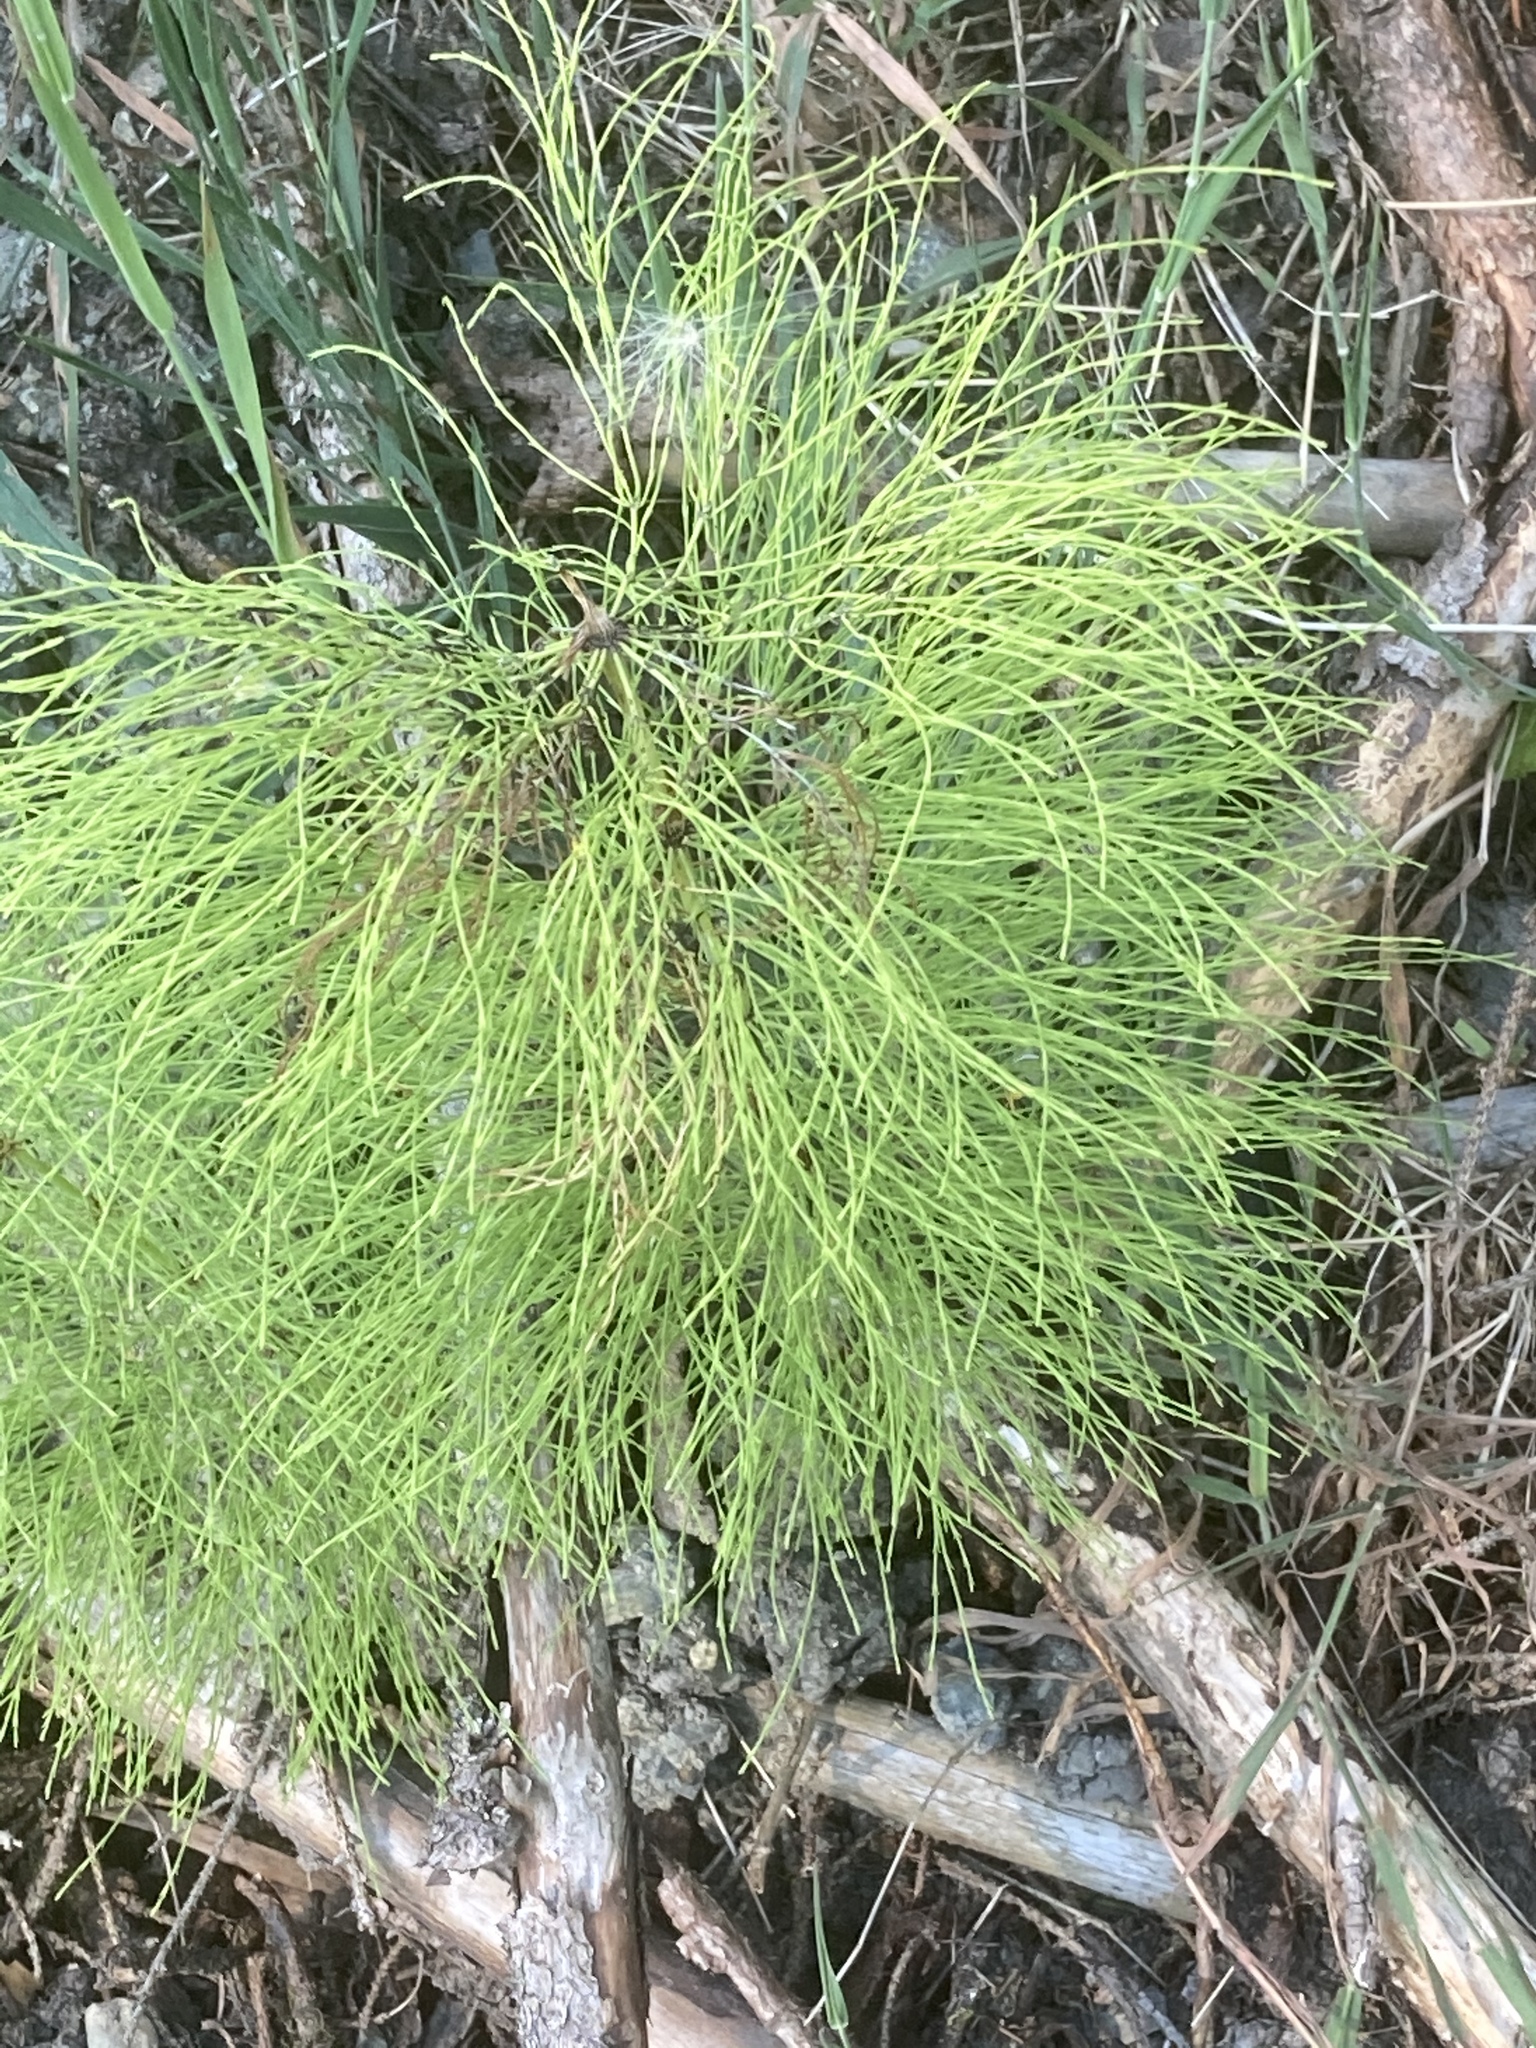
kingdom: Plantae
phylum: Tracheophyta
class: Polypodiopsida
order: Equisetales
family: Equisetaceae
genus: Equisetum
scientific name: Equisetum sylvaticum
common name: Wood horsetail
